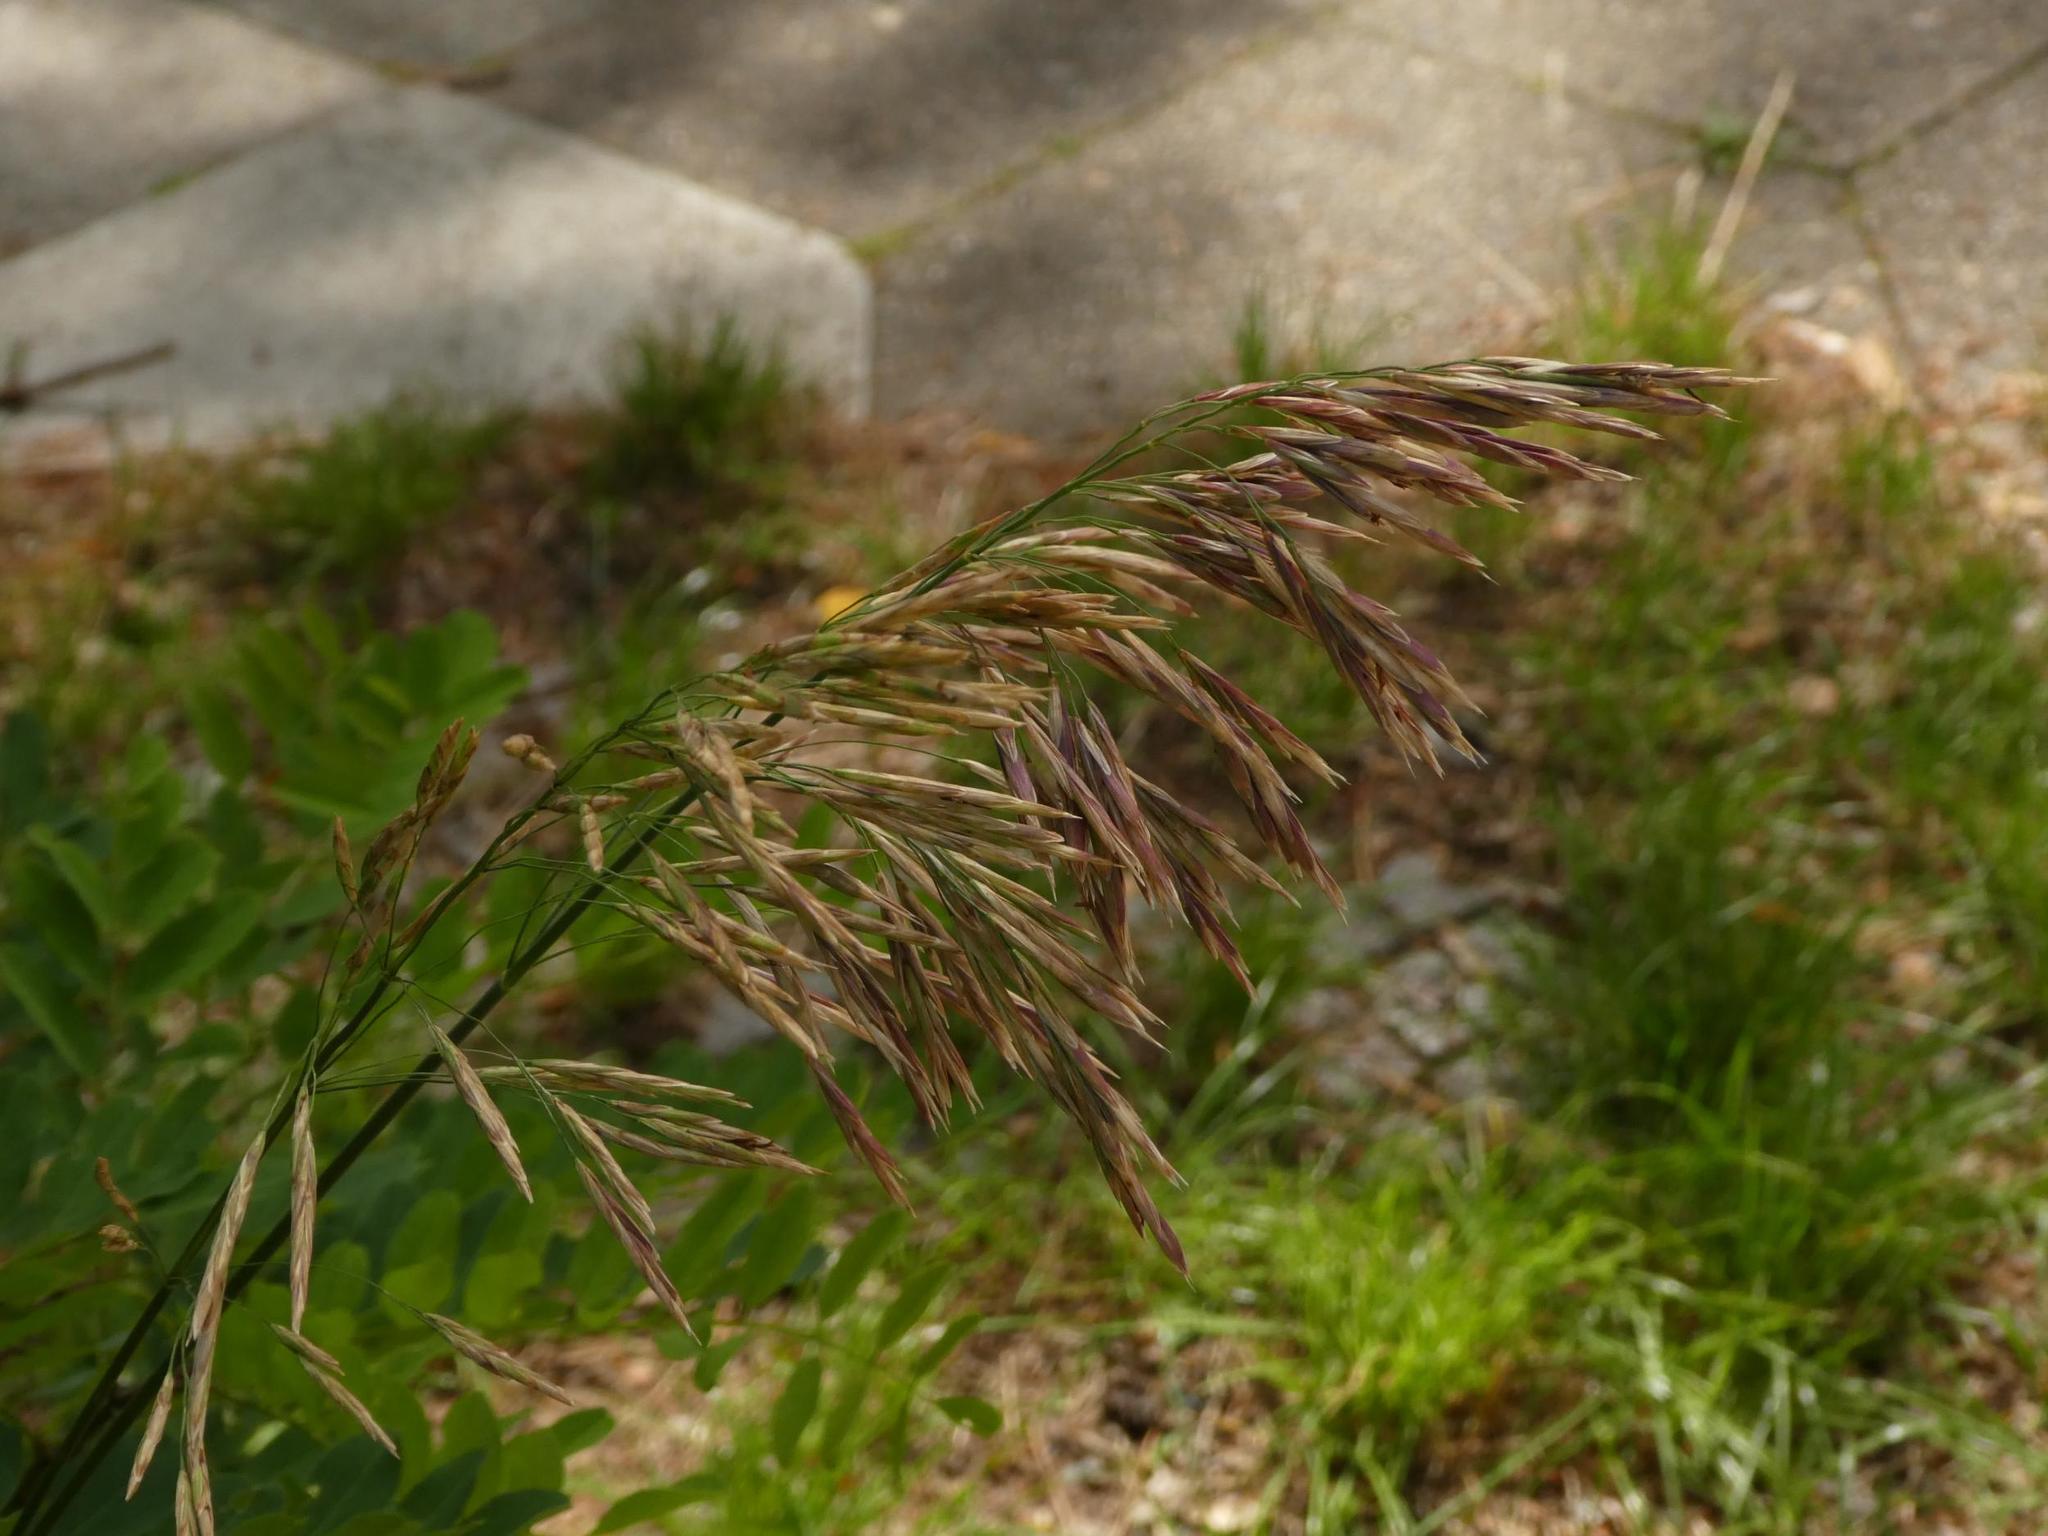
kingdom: Plantae
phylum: Tracheophyta
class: Liliopsida
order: Poales
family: Poaceae
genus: Bromus
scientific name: Bromus inermis
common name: Smooth brome
